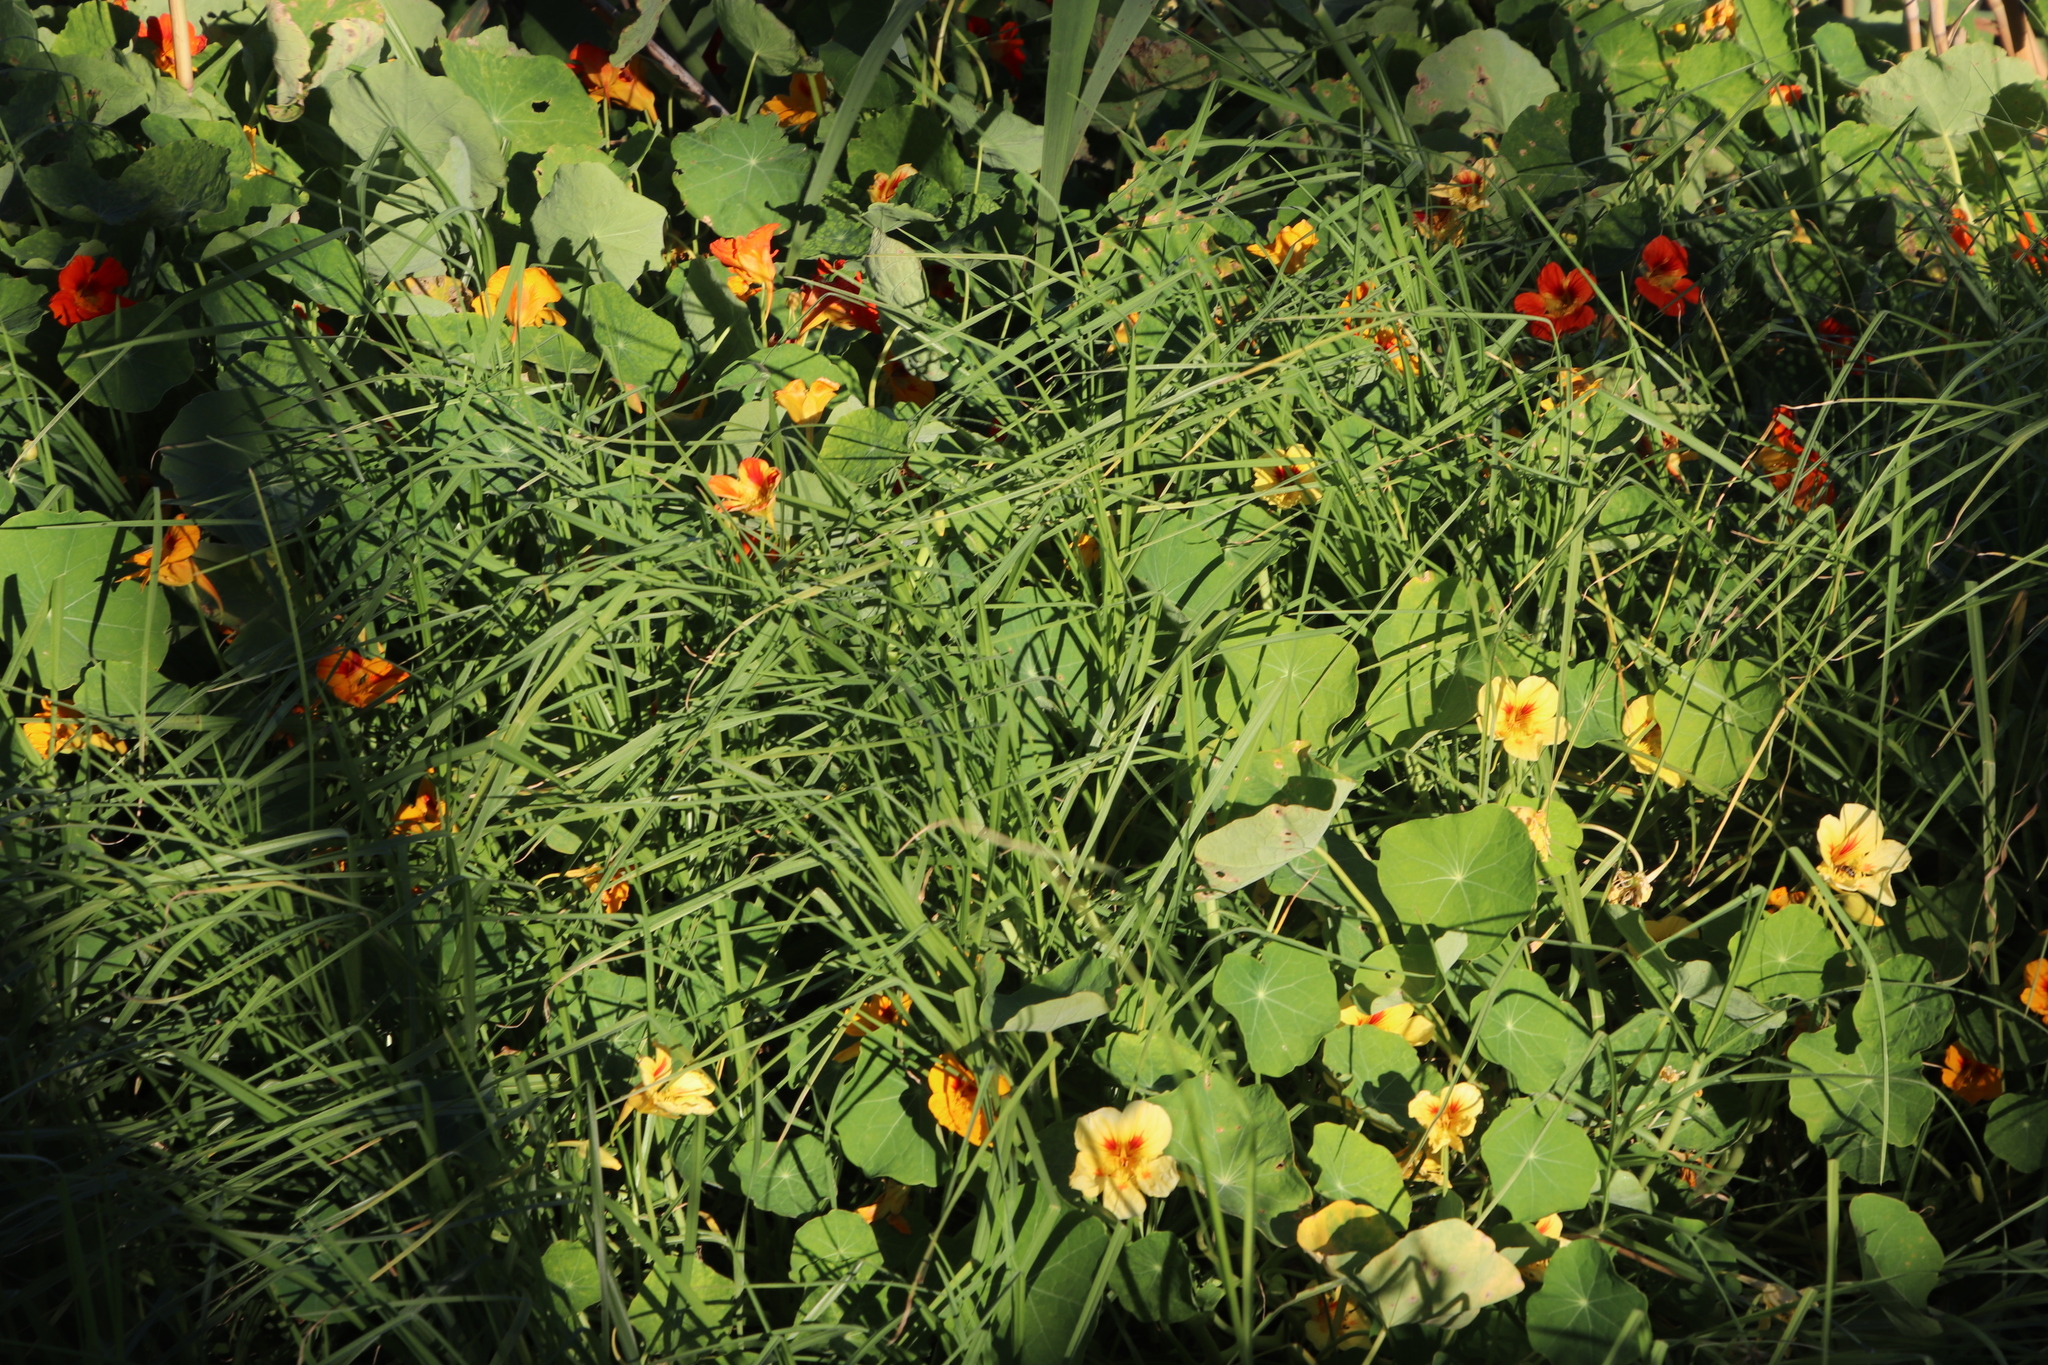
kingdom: Plantae
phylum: Tracheophyta
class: Magnoliopsida
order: Brassicales
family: Tropaeolaceae
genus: Tropaeolum
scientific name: Tropaeolum majus
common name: Nasturtium
